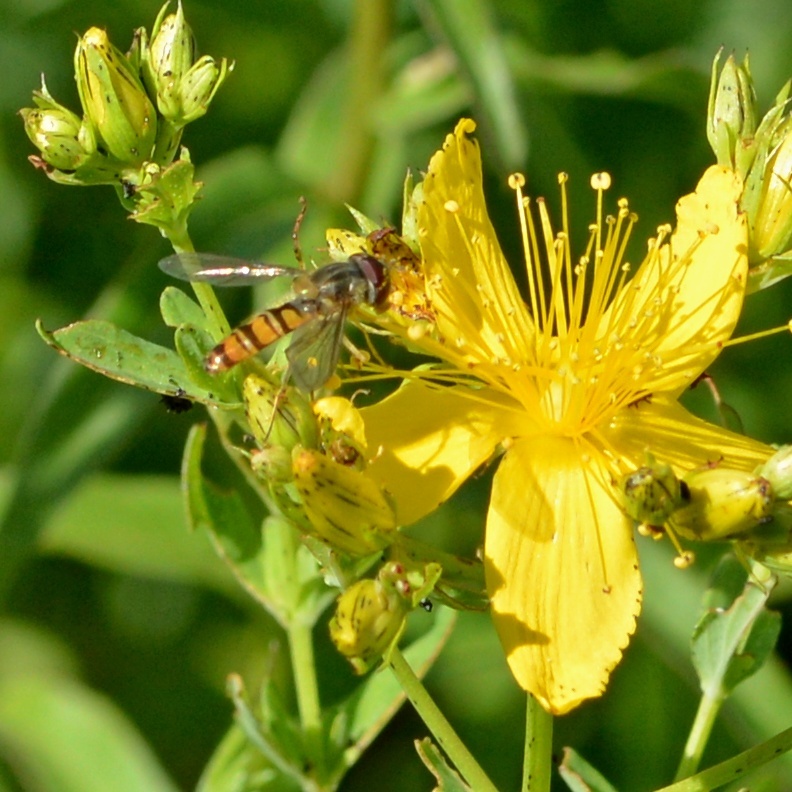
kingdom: Plantae
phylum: Tracheophyta
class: Magnoliopsida
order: Malpighiales
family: Hypericaceae
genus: Hypericum
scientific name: Hypericum perforatum
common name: Common st. johnswort
